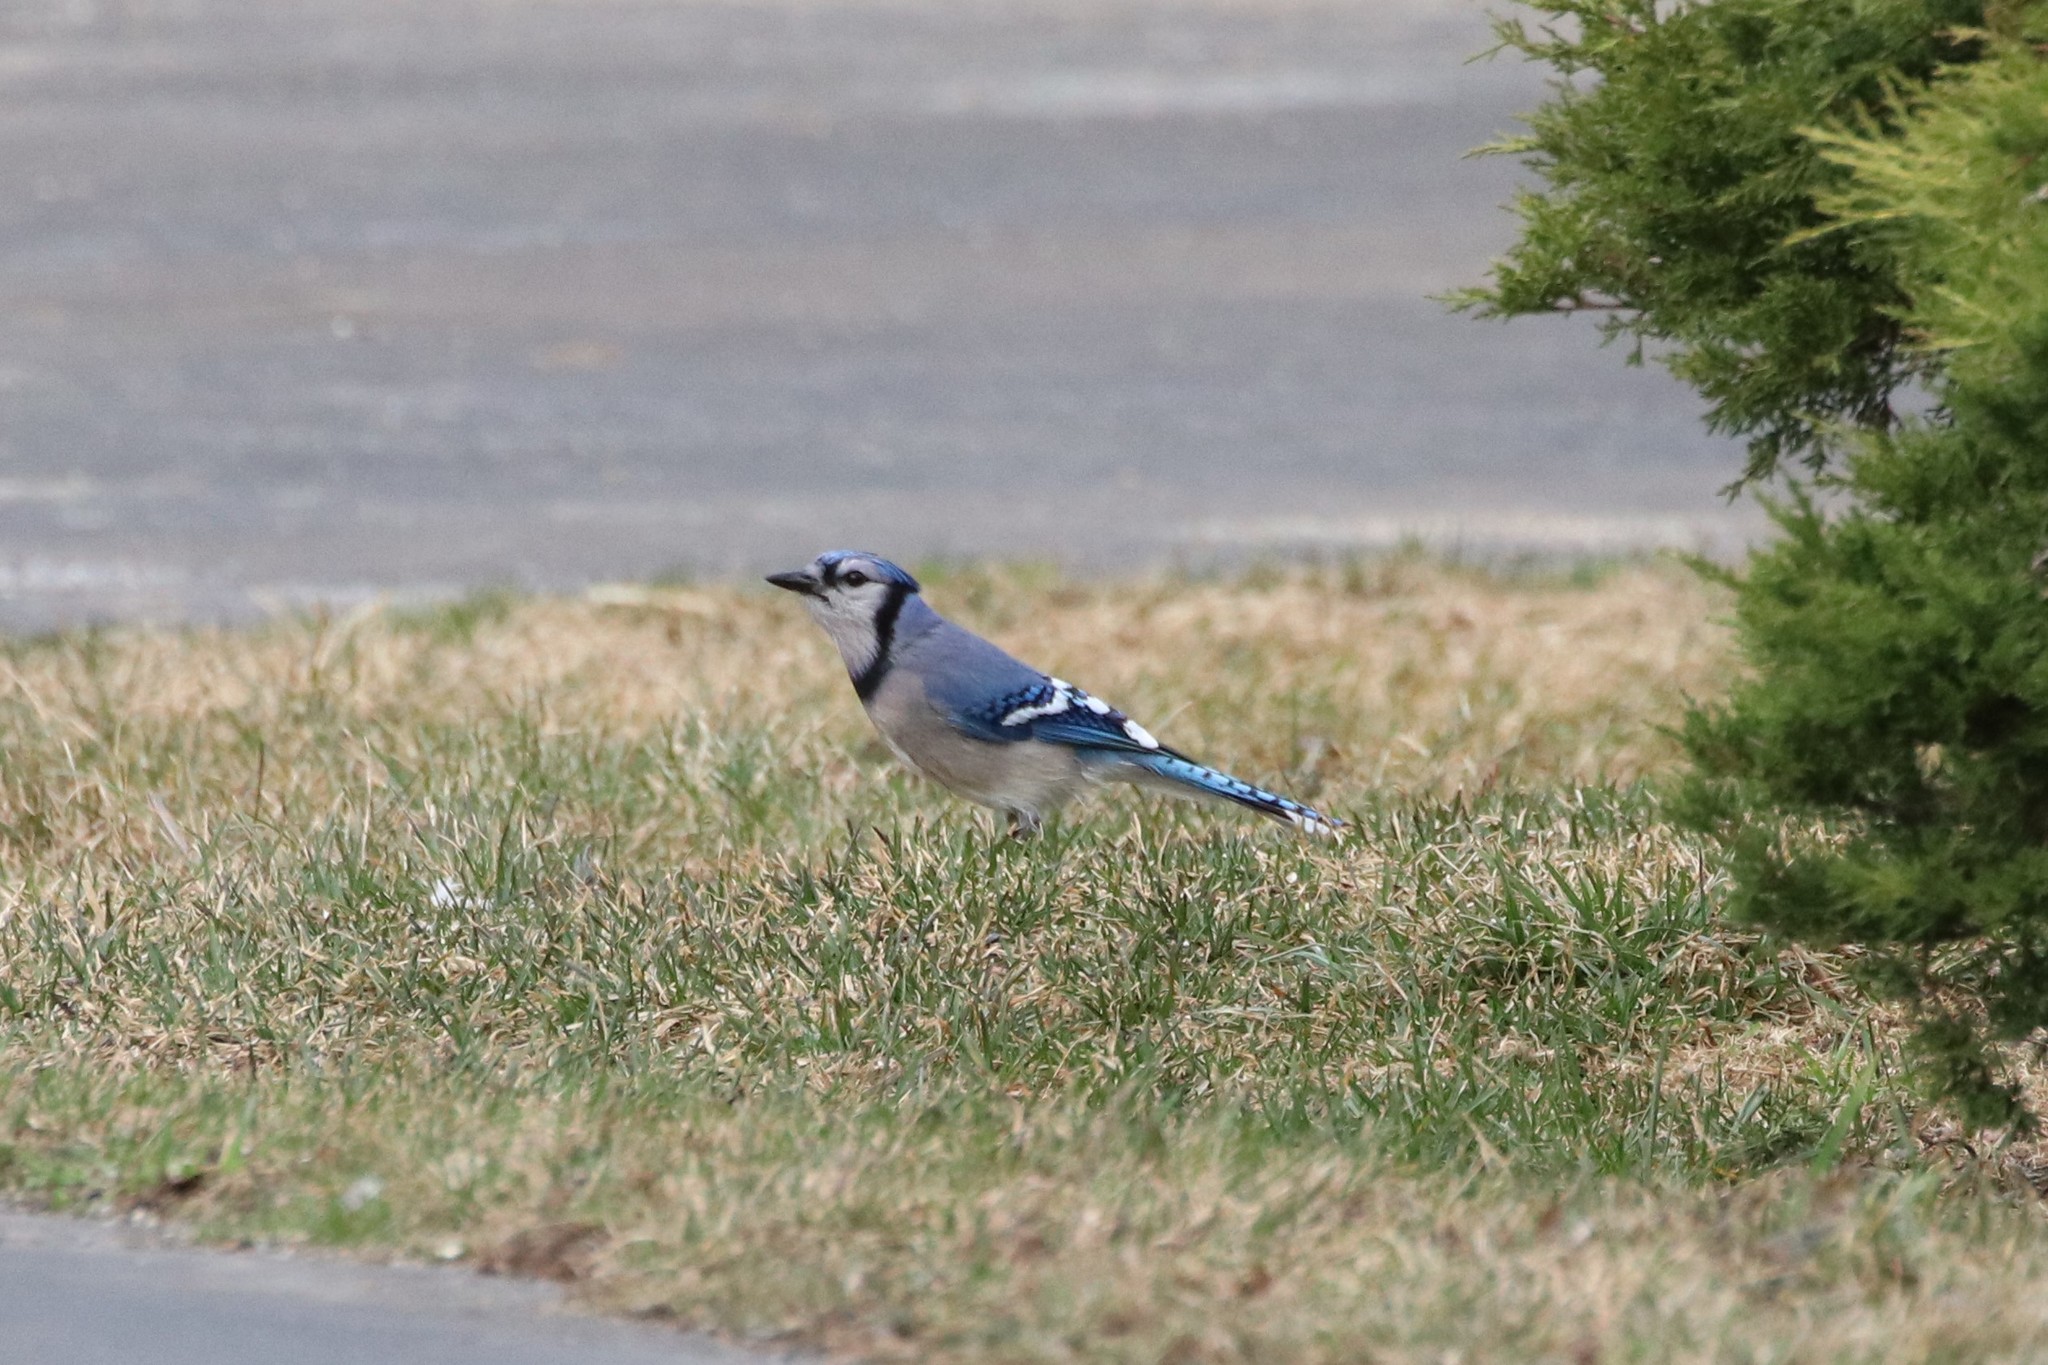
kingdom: Animalia
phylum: Chordata
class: Aves
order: Passeriformes
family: Corvidae
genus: Cyanocitta
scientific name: Cyanocitta cristata
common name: Blue jay
